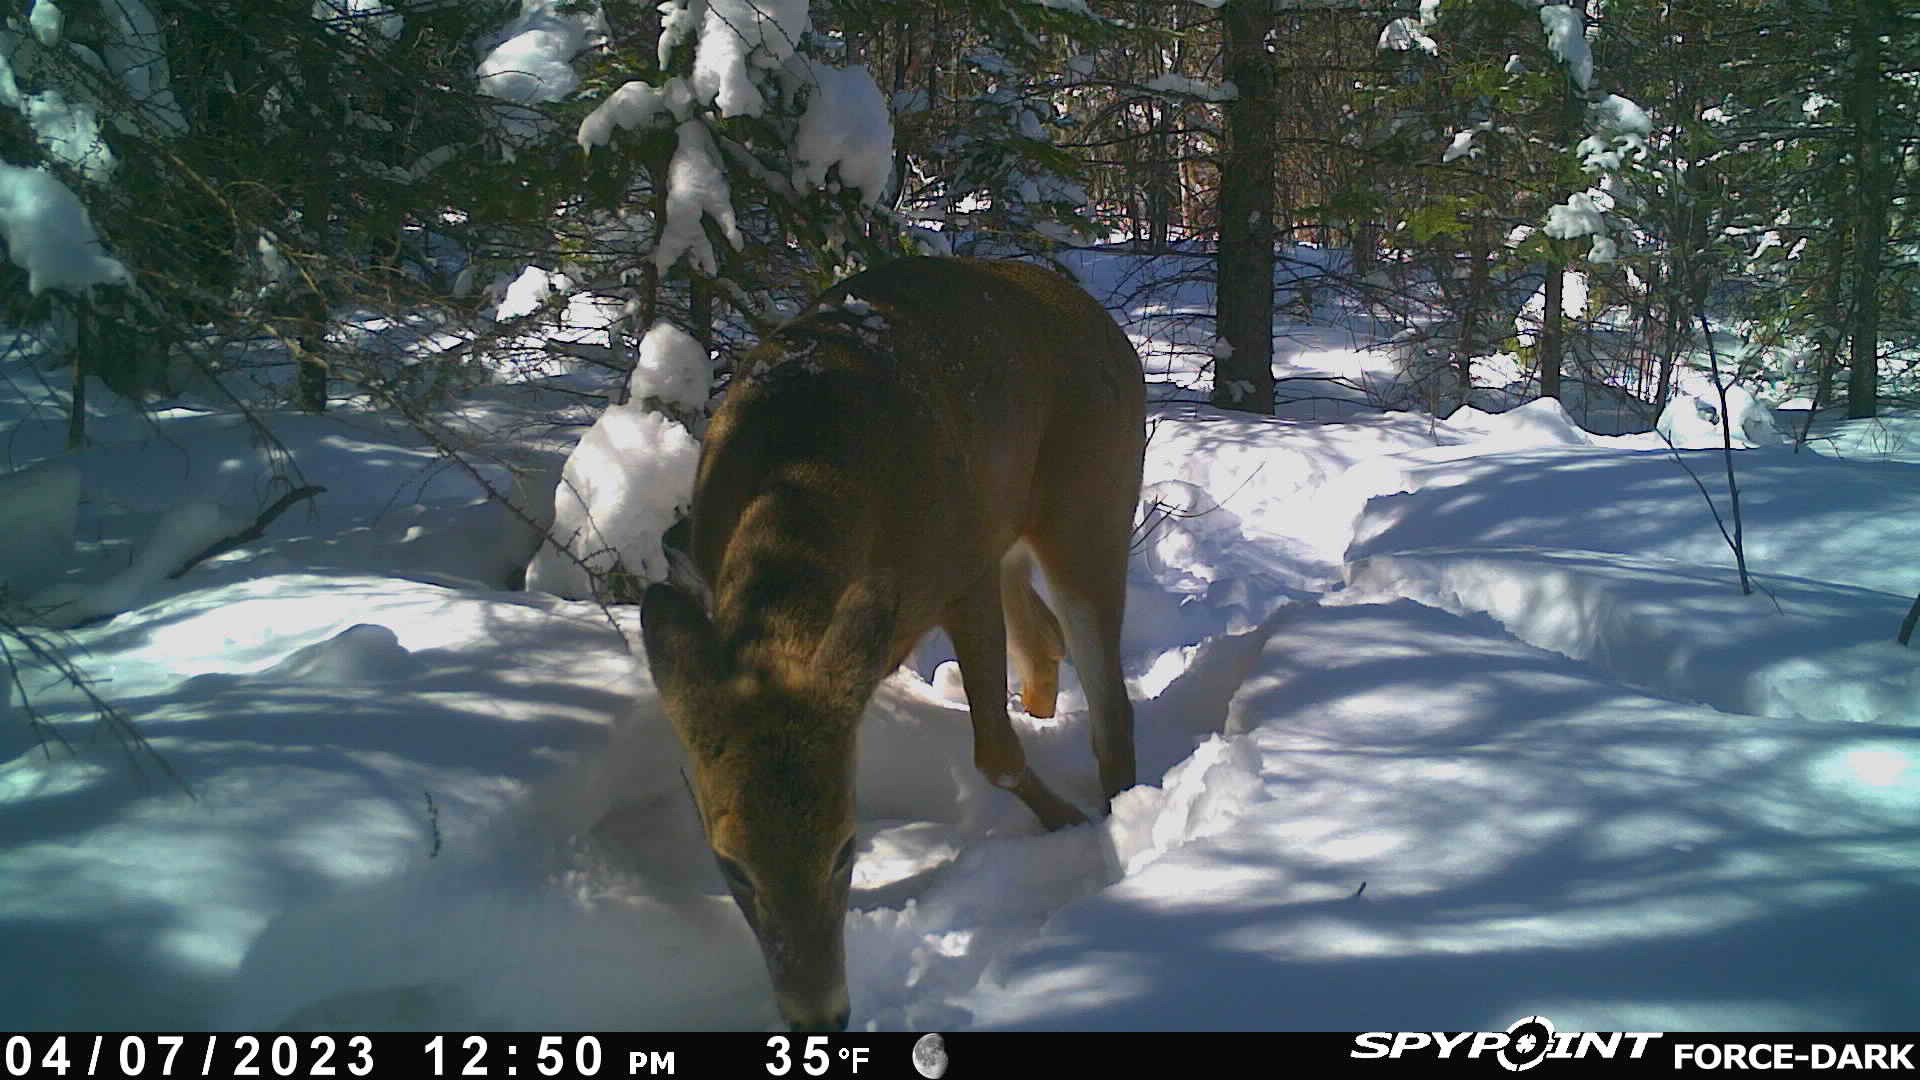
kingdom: Animalia
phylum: Chordata
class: Mammalia
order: Artiodactyla
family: Cervidae
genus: Odocoileus
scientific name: Odocoileus virginianus
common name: White-tailed deer
